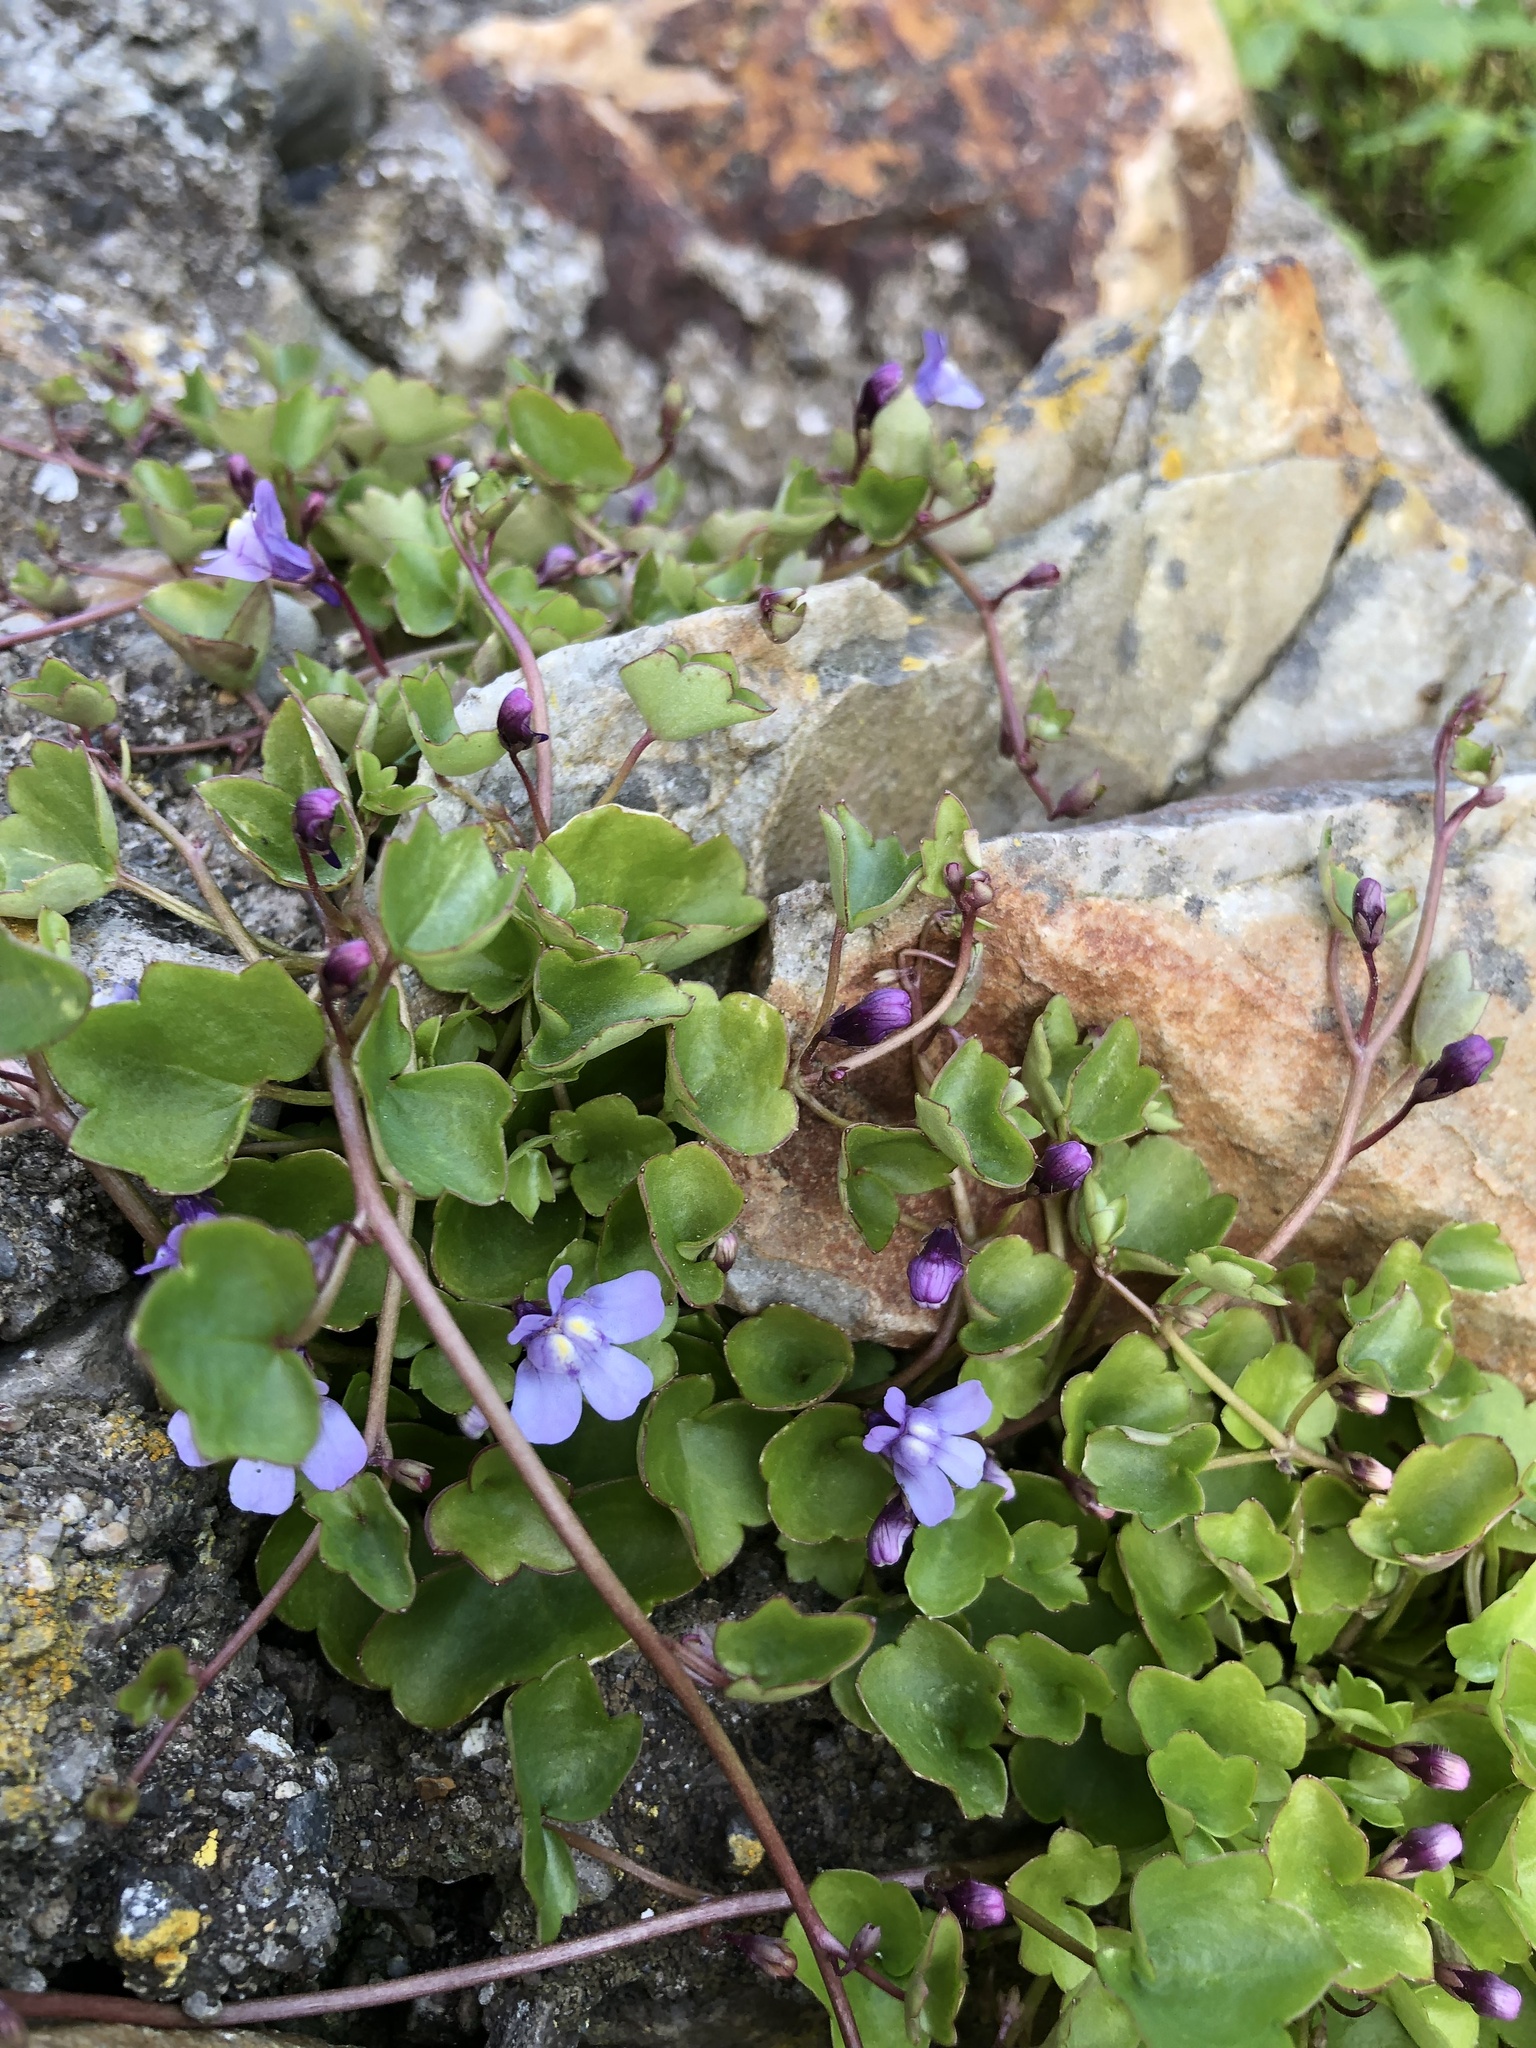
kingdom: Plantae
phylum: Tracheophyta
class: Magnoliopsida
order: Lamiales
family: Plantaginaceae
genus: Cymbalaria
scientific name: Cymbalaria muralis
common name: Ivy-leaved toadflax
